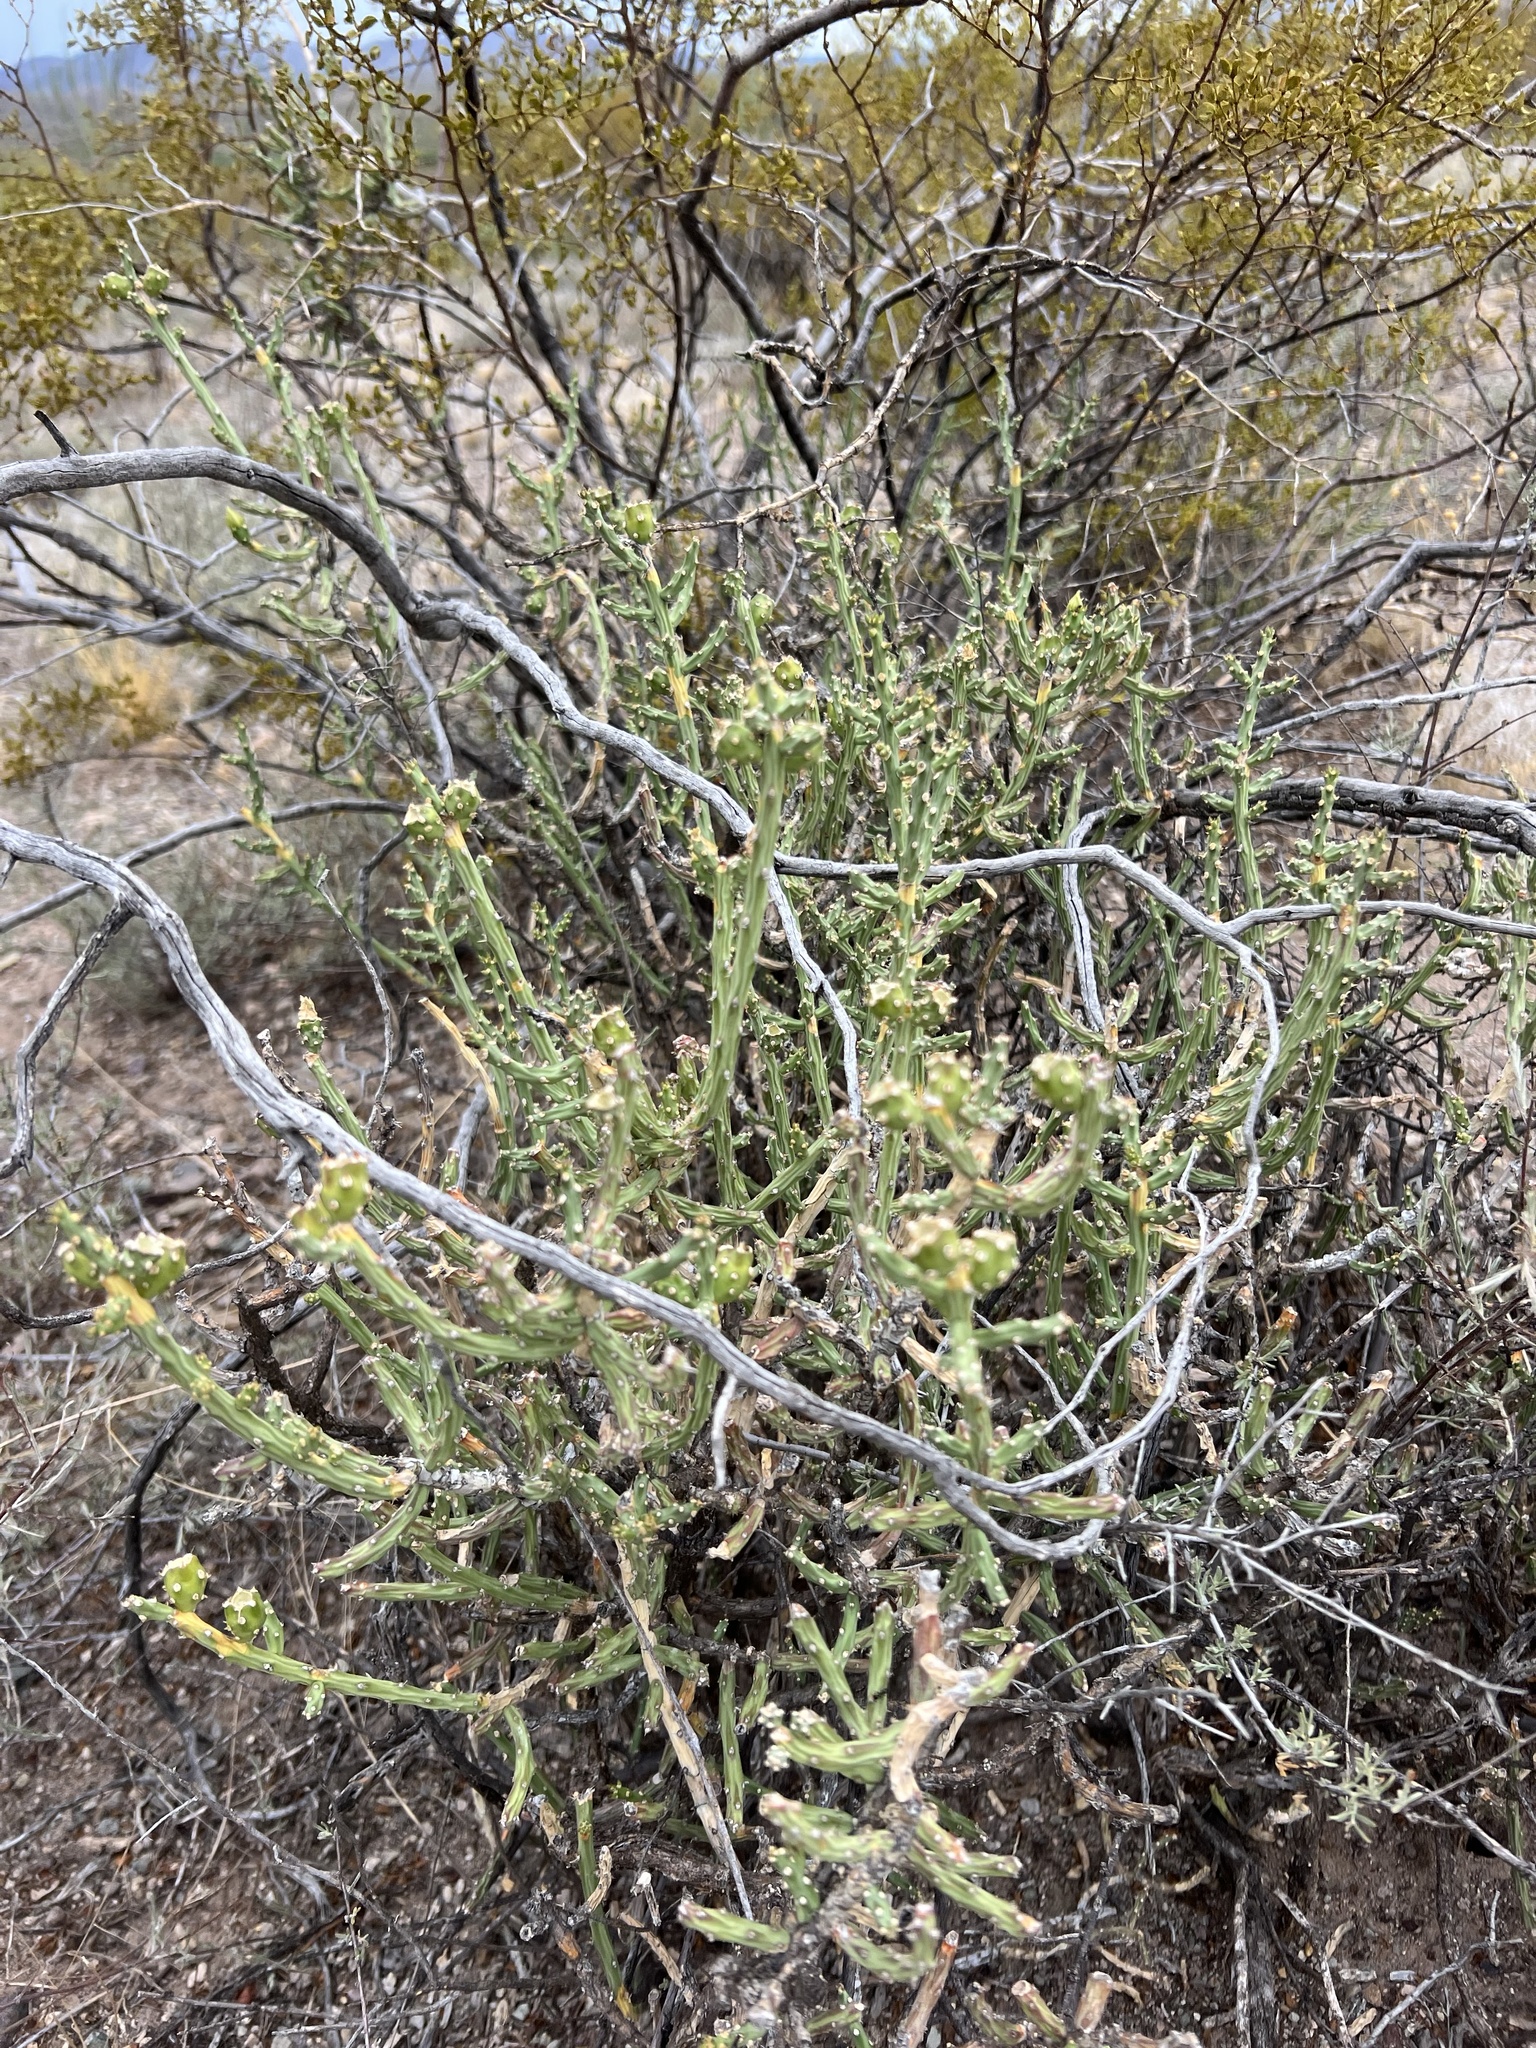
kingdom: Plantae
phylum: Tracheophyta
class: Magnoliopsida
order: Caryophyllales
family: Cactaceae
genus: Cylindropuntia
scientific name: Cylindropuntia leptocaulis
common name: Christmas cactus
